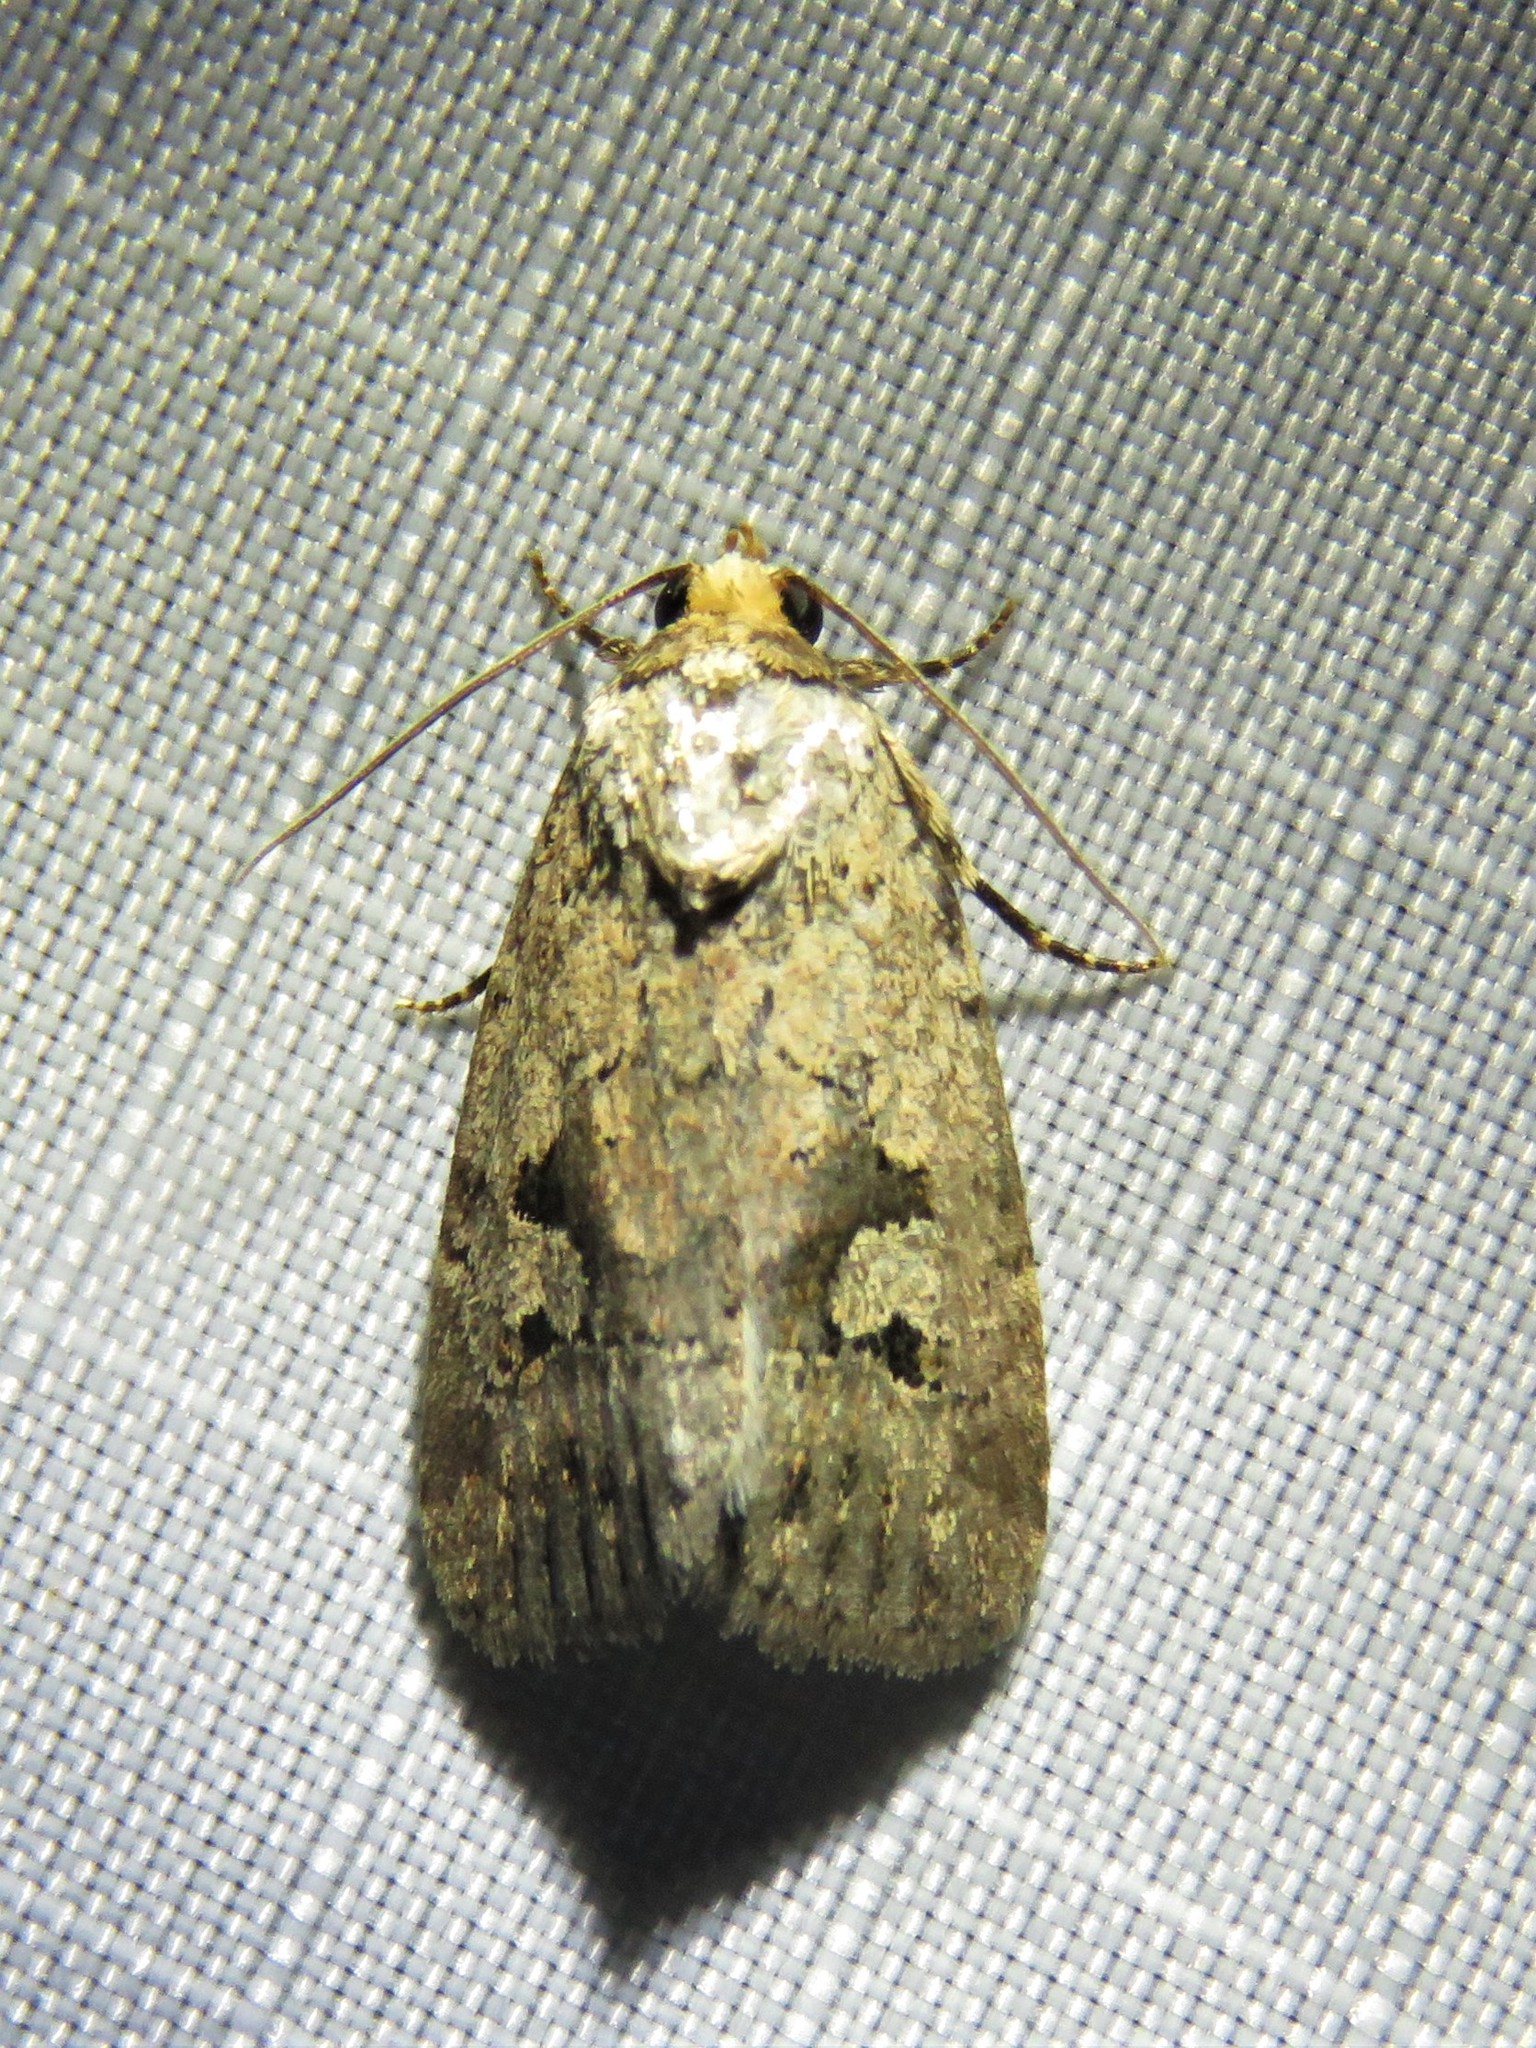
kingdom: Animalia
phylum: Arthropoda
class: Insecta
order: Lepidoptera
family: Noctuidae
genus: Elaphria
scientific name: Elaphria festivoides
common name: Festive midget
